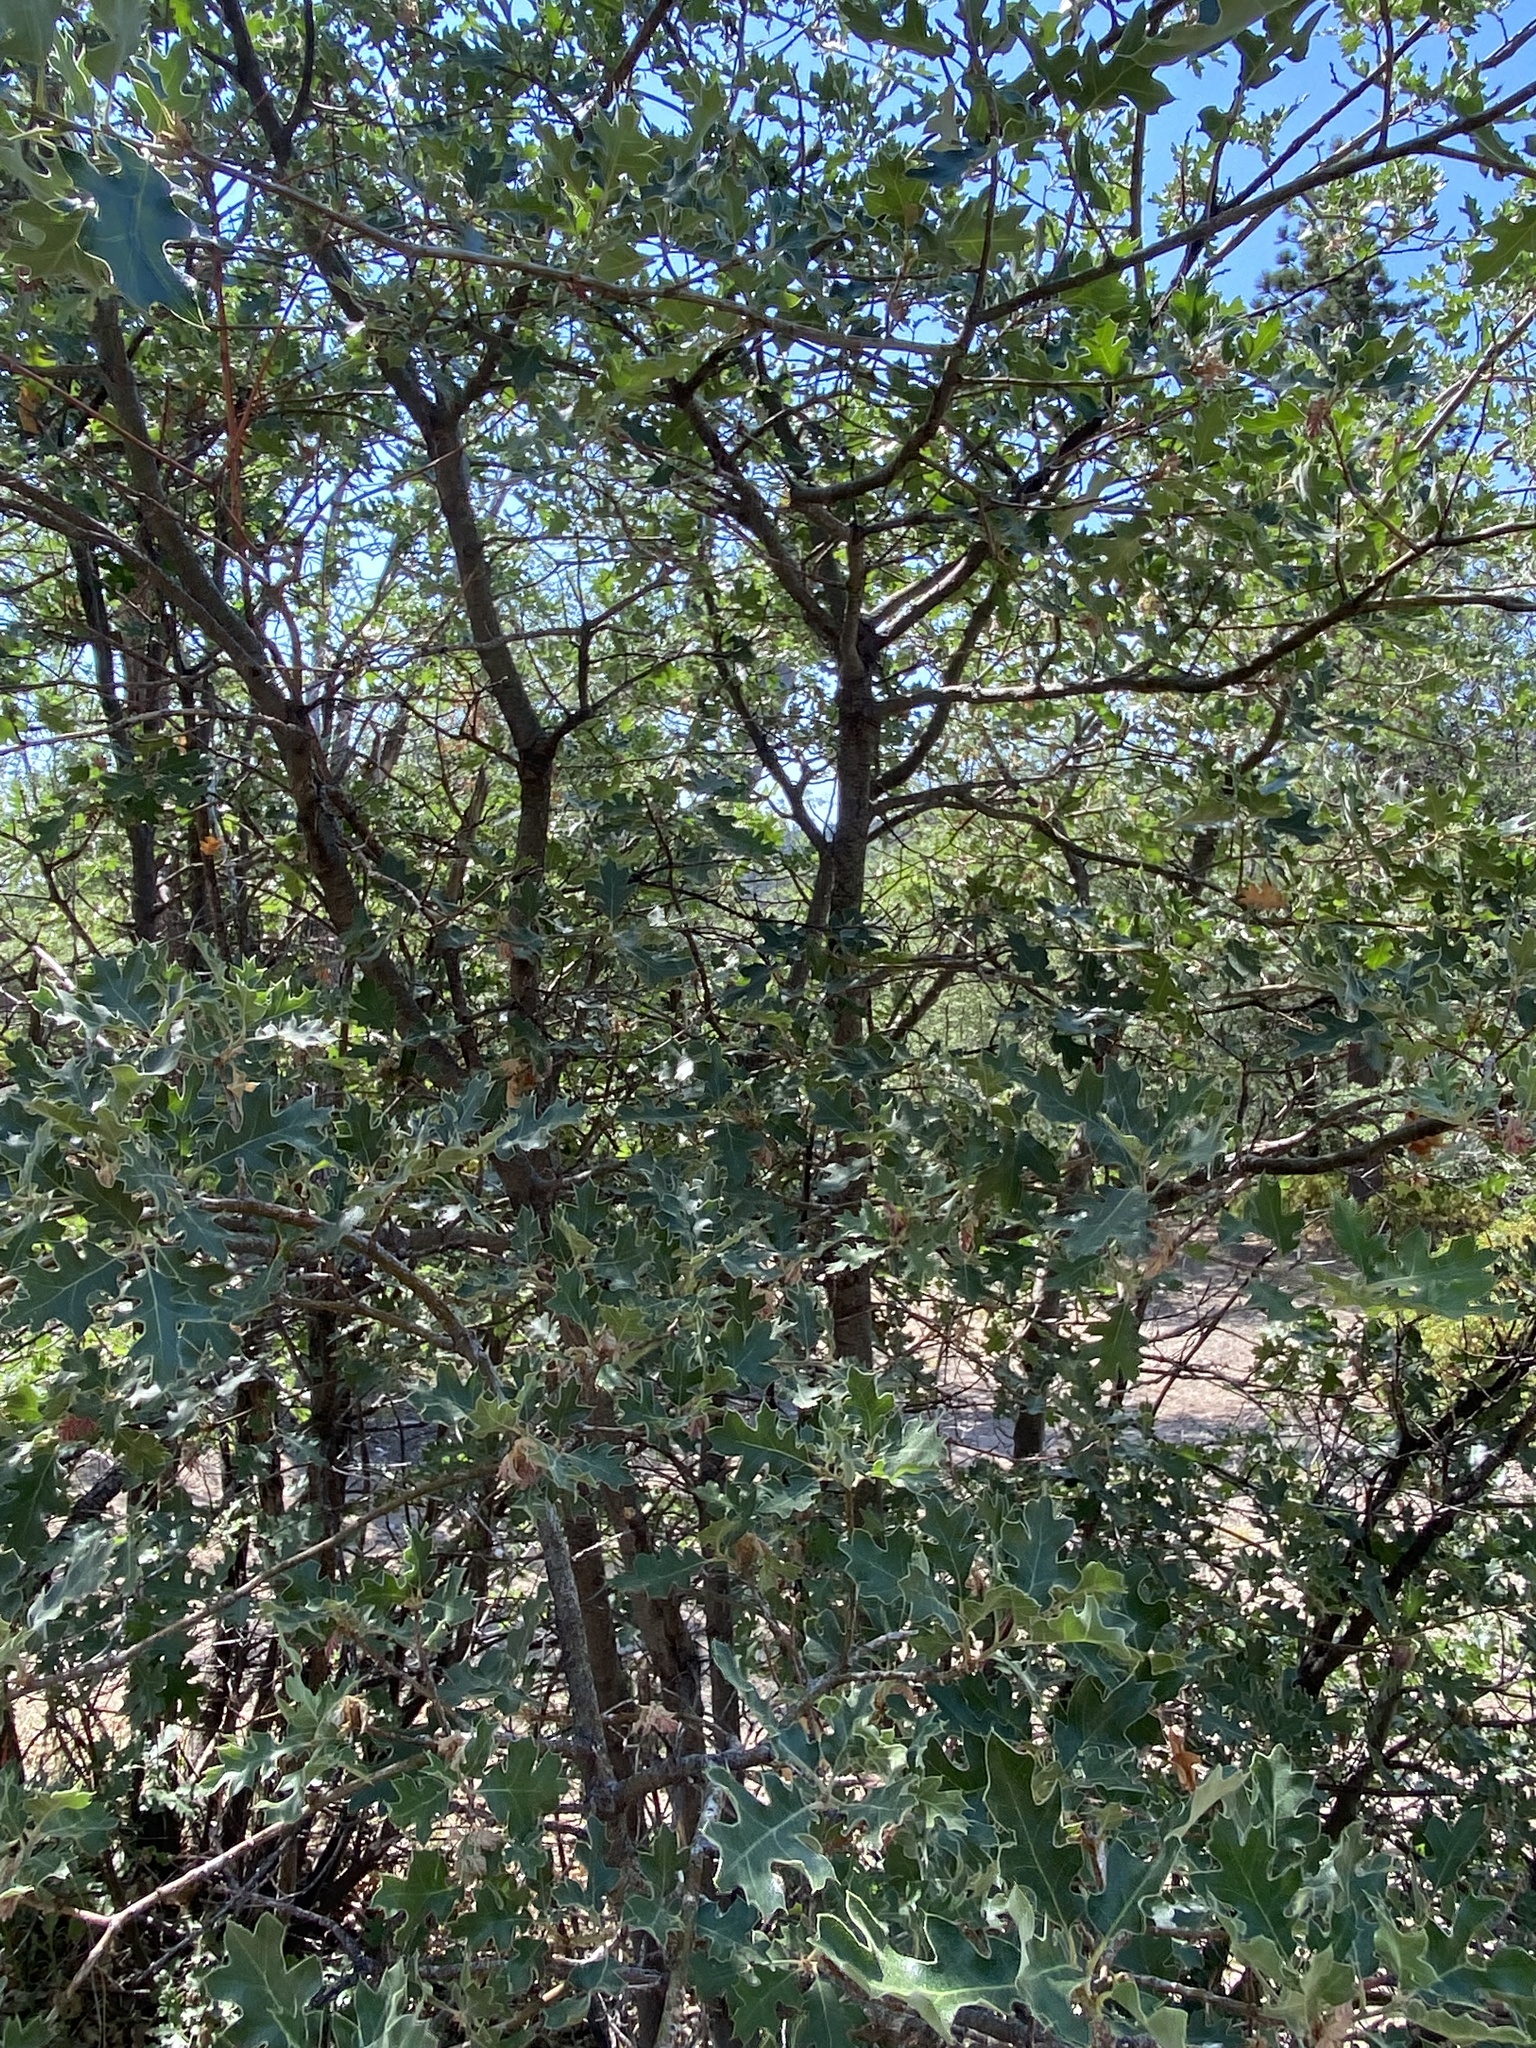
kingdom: Plantae
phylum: Tracheophyta
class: Magnoliopsida
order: Fagales
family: Fagaceae
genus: Quercus
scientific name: Quercus kelloggii
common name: California black oak
